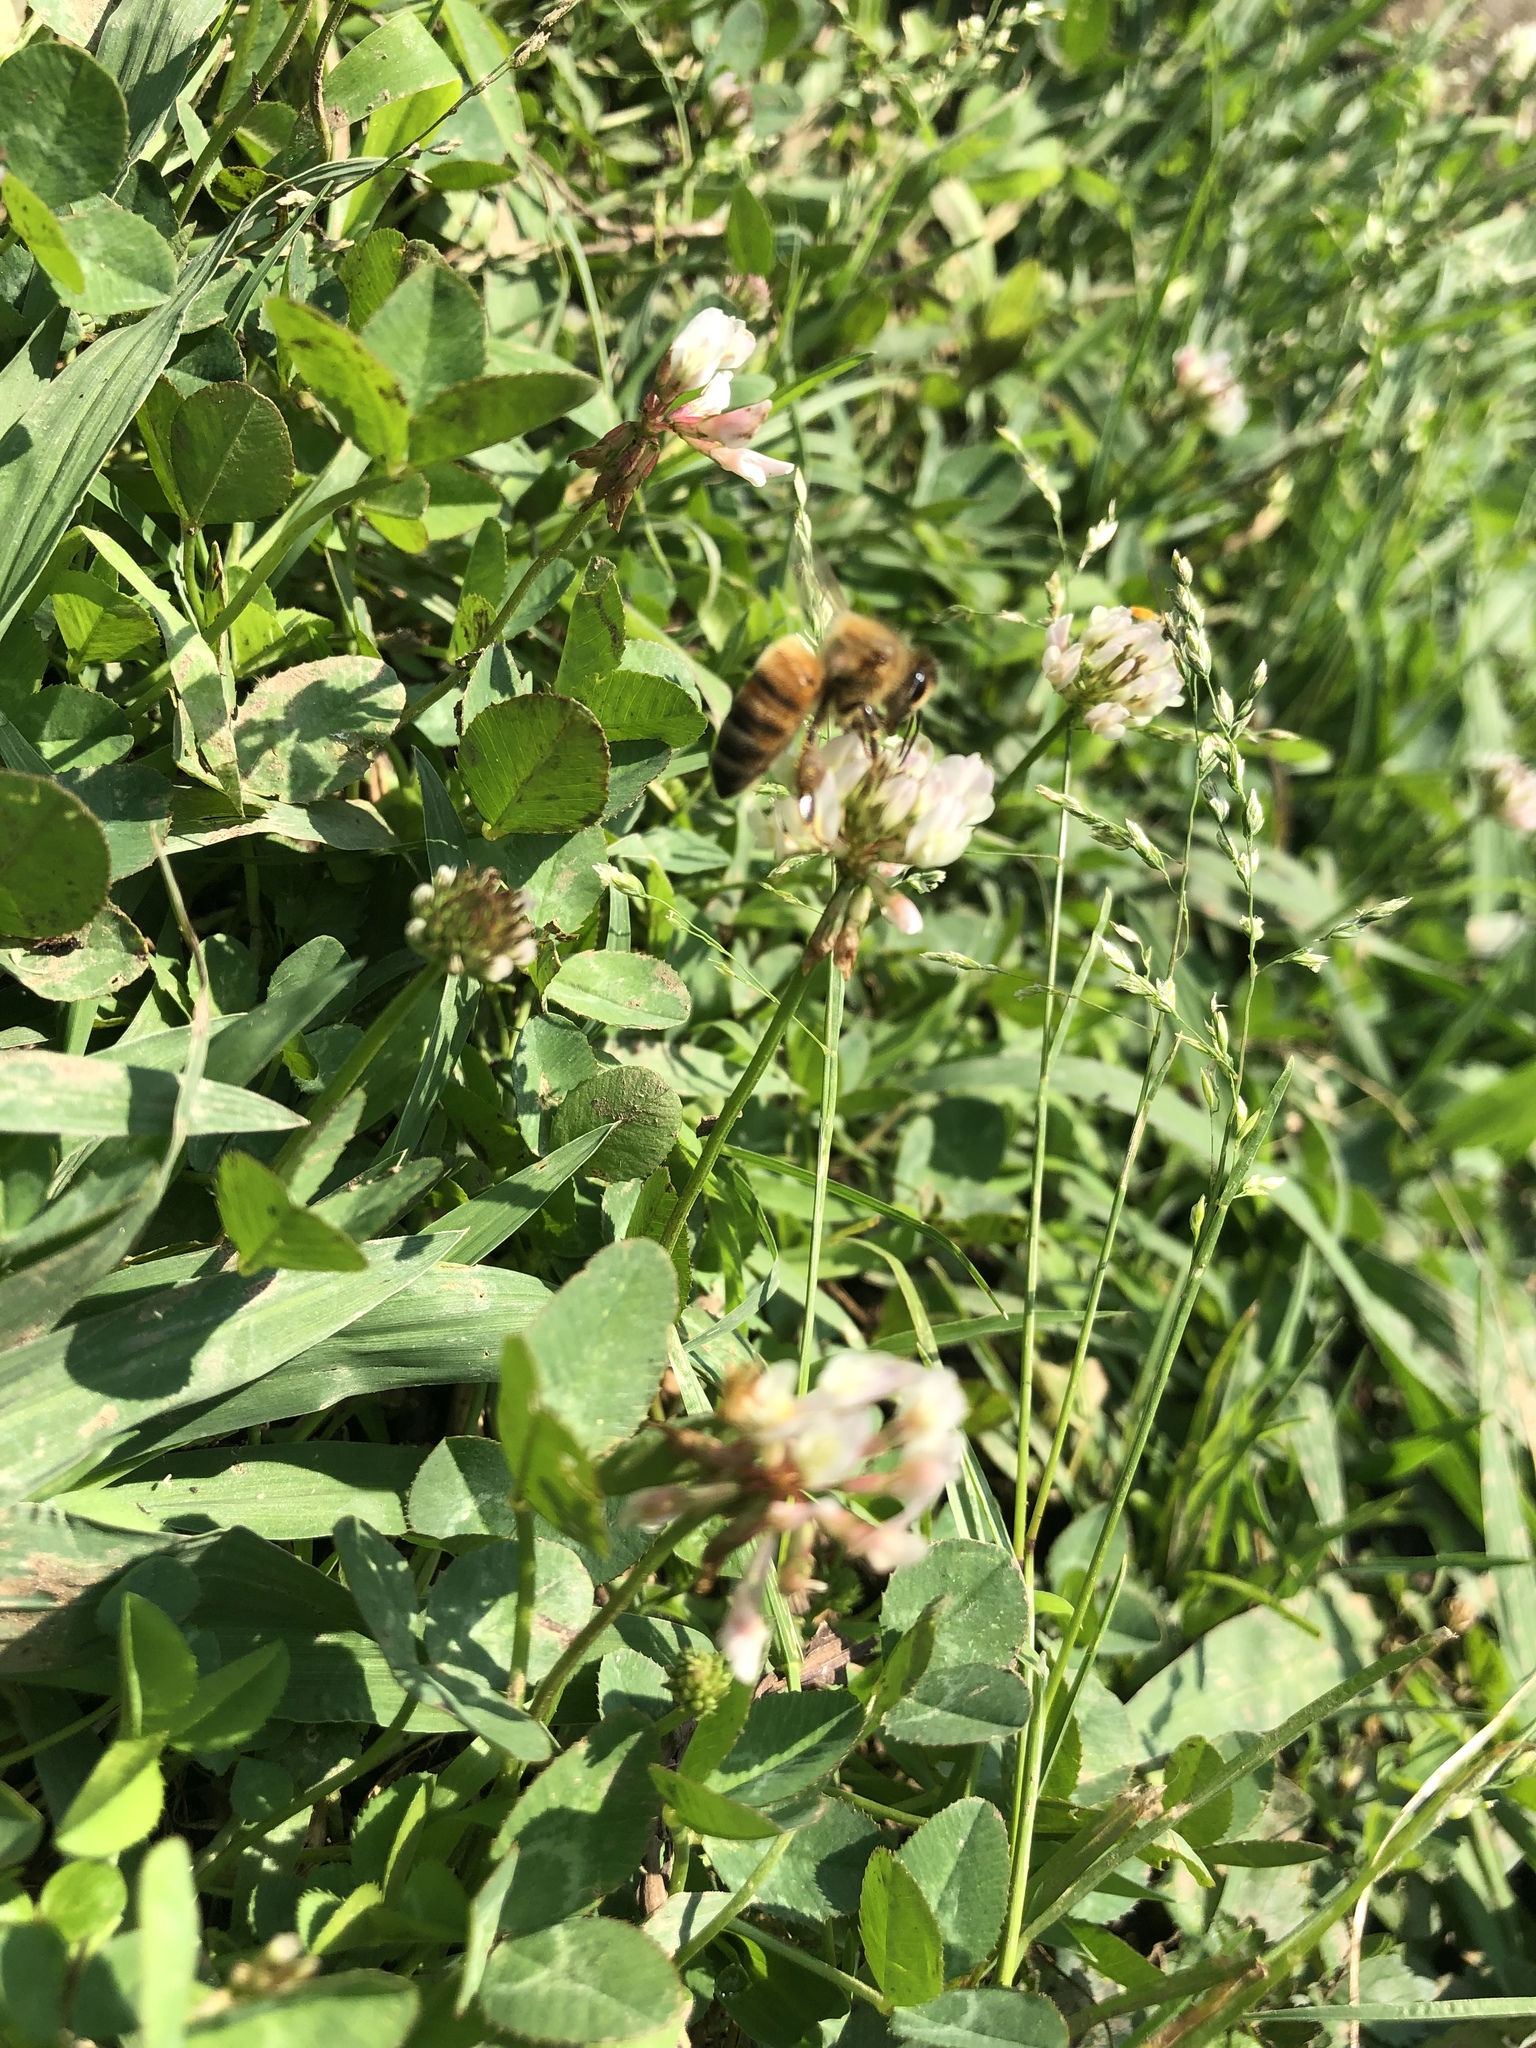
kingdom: Plantae
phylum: Tracheophyta
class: Magnoliopsida
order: Fabales
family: Fabaceae
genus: Trifolium
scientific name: Trifolium repens
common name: White clover
